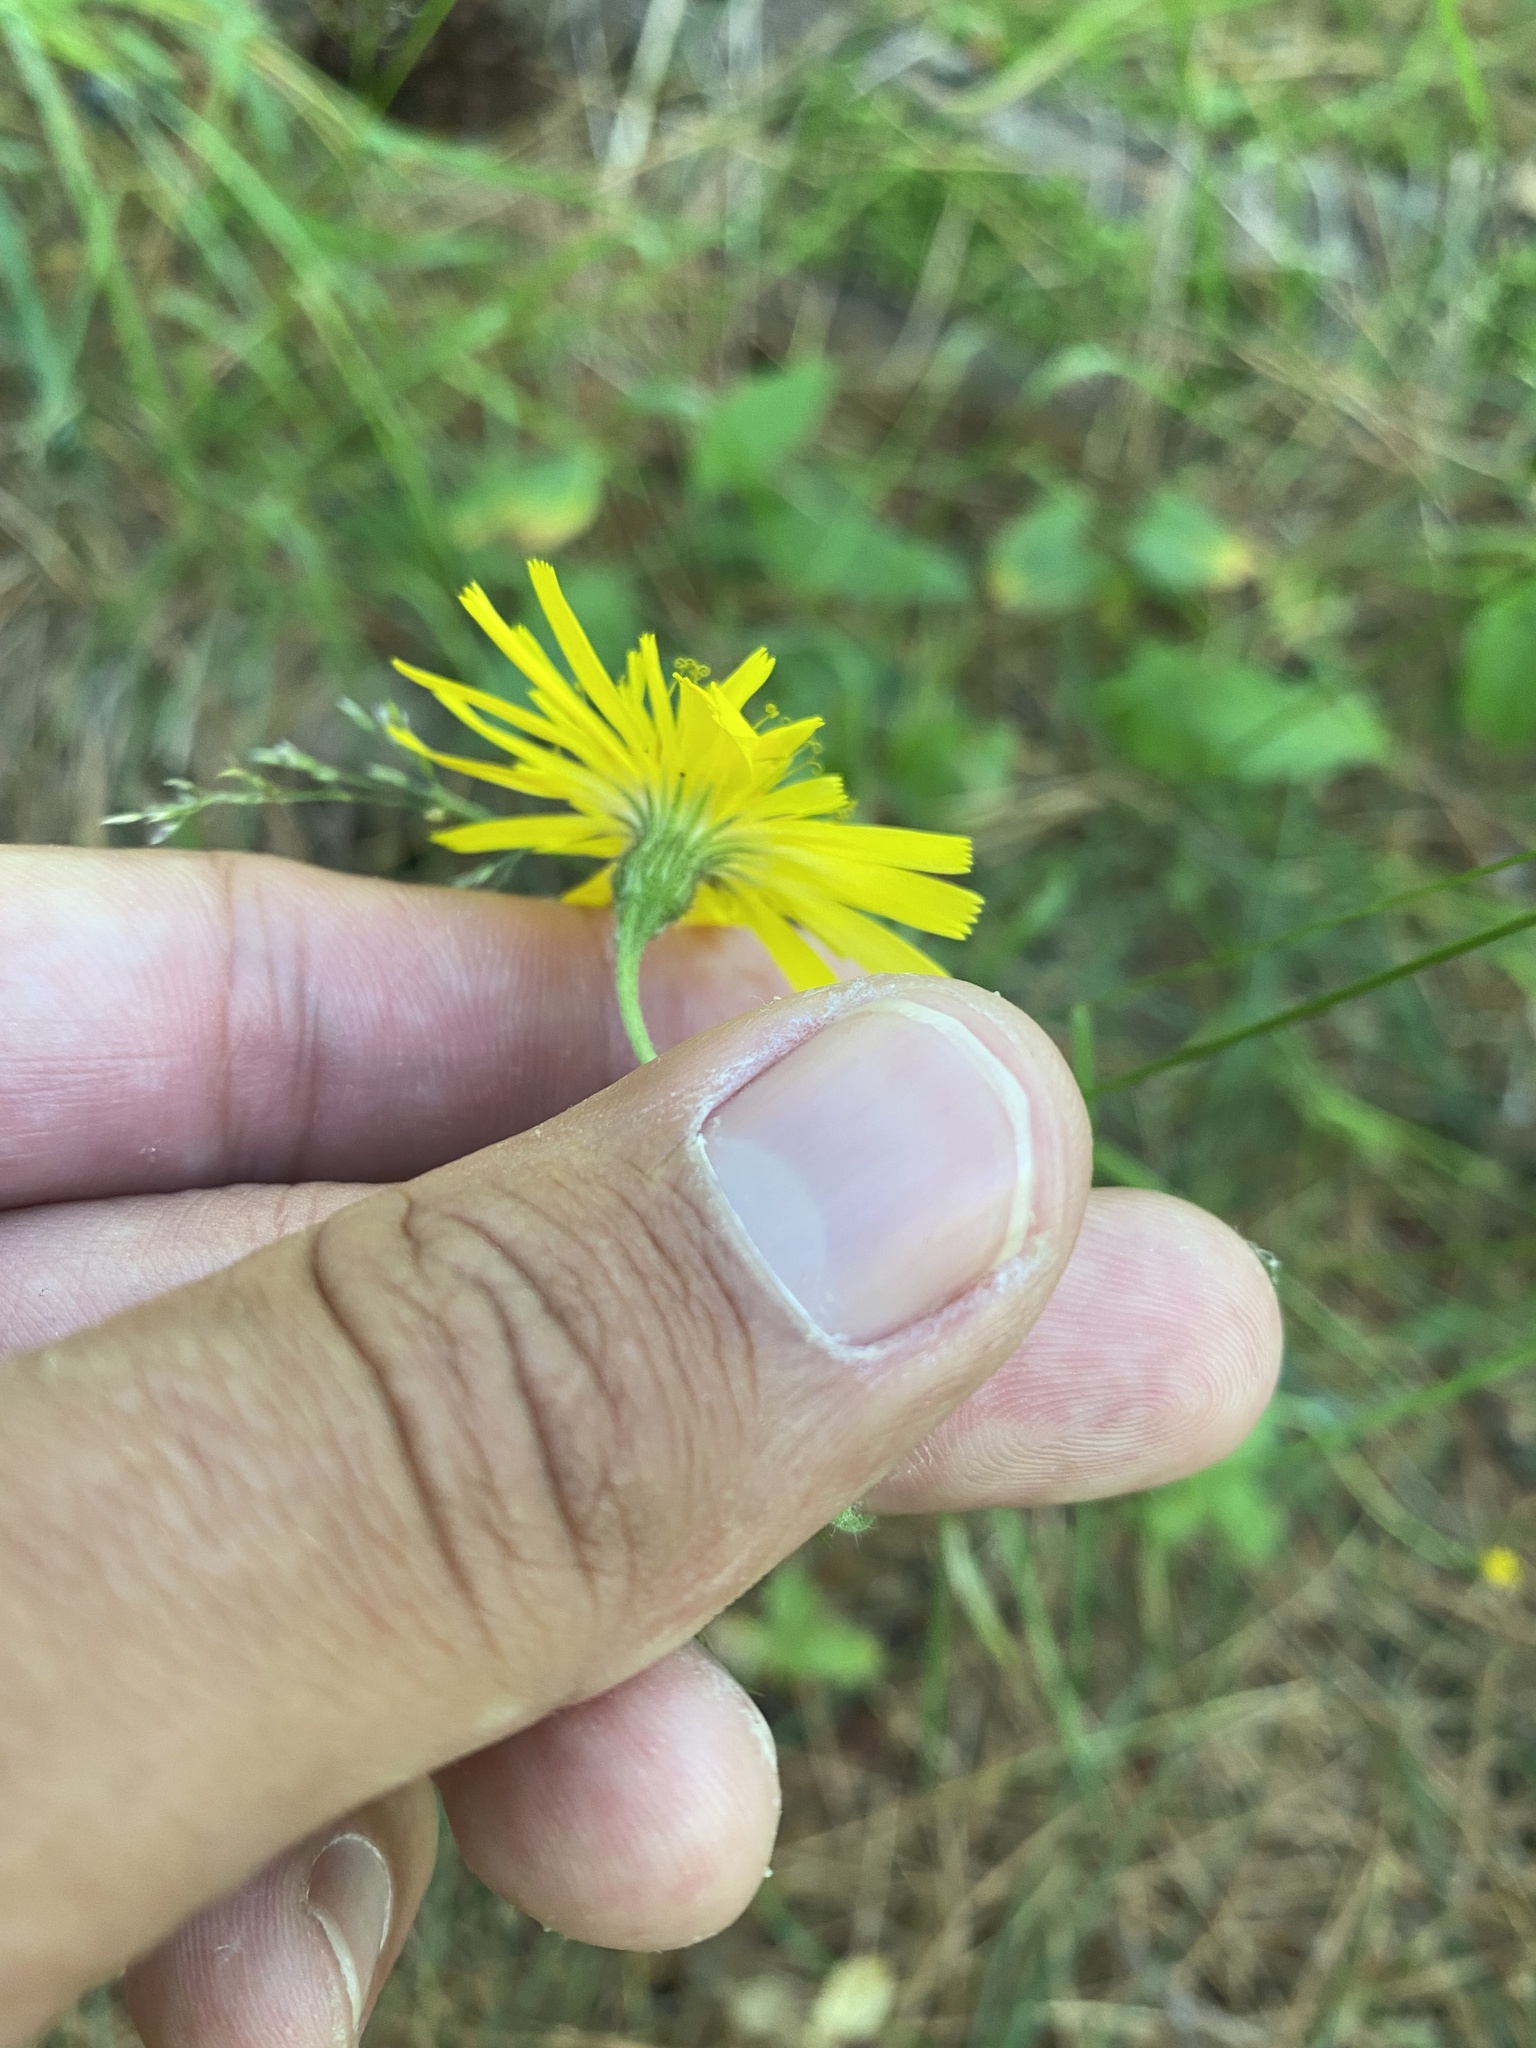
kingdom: Plantae
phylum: Tracheophyta
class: Magnoliopsida
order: Asterales
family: Asteraceae
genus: Hieracium
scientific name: Hieracium ganeschinii
